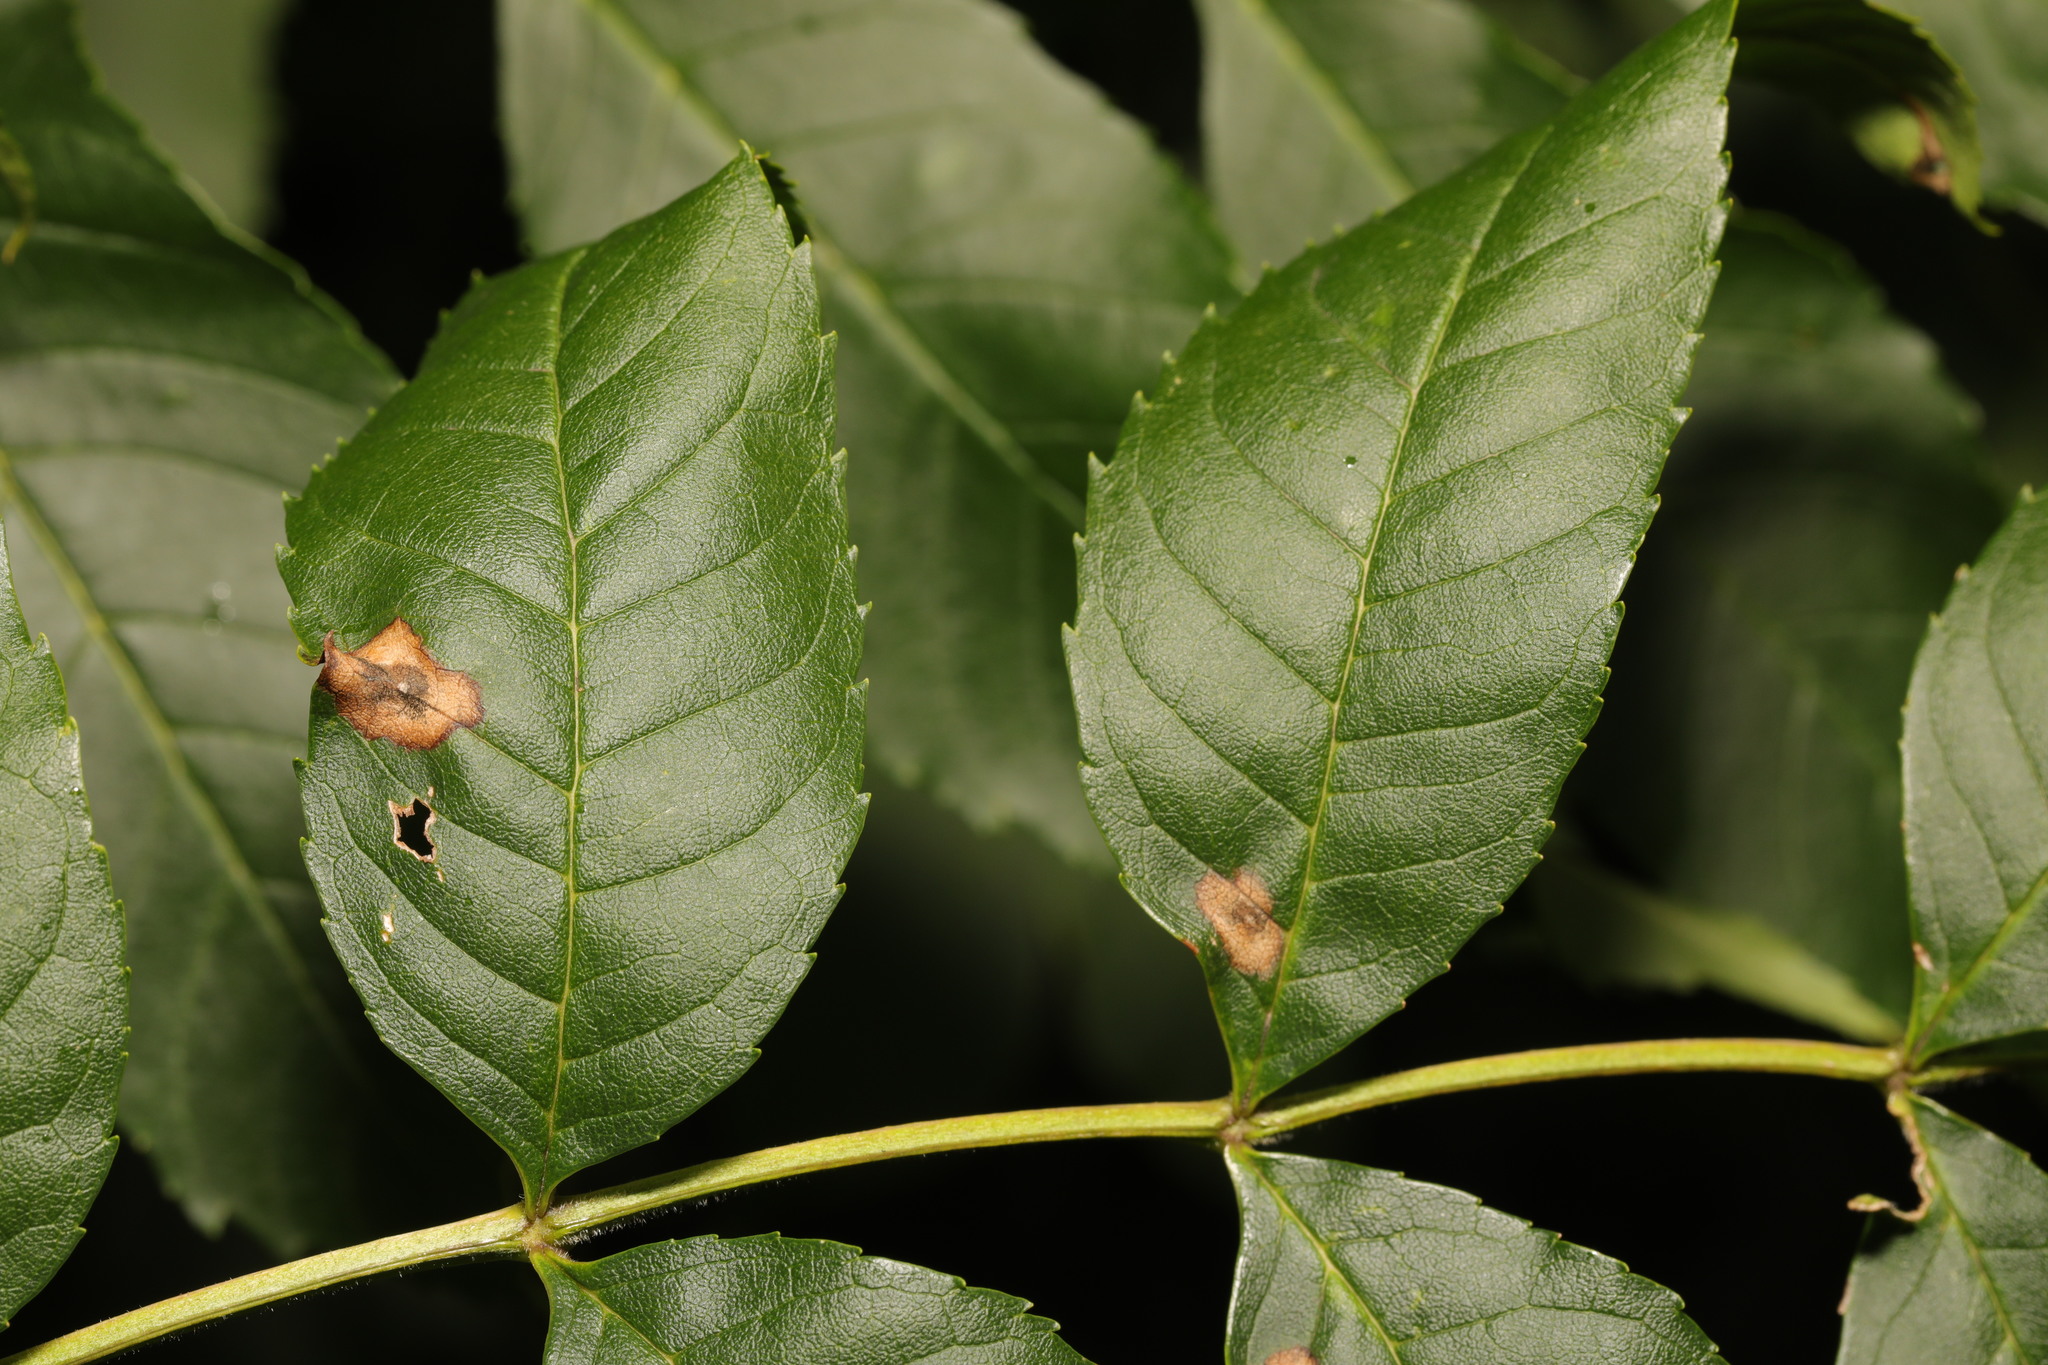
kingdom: Animalia
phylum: Arthropoda
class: Insecta
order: Diptera
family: Cecidomyiidae
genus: Dasineura
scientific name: Dasineura fraxinea
